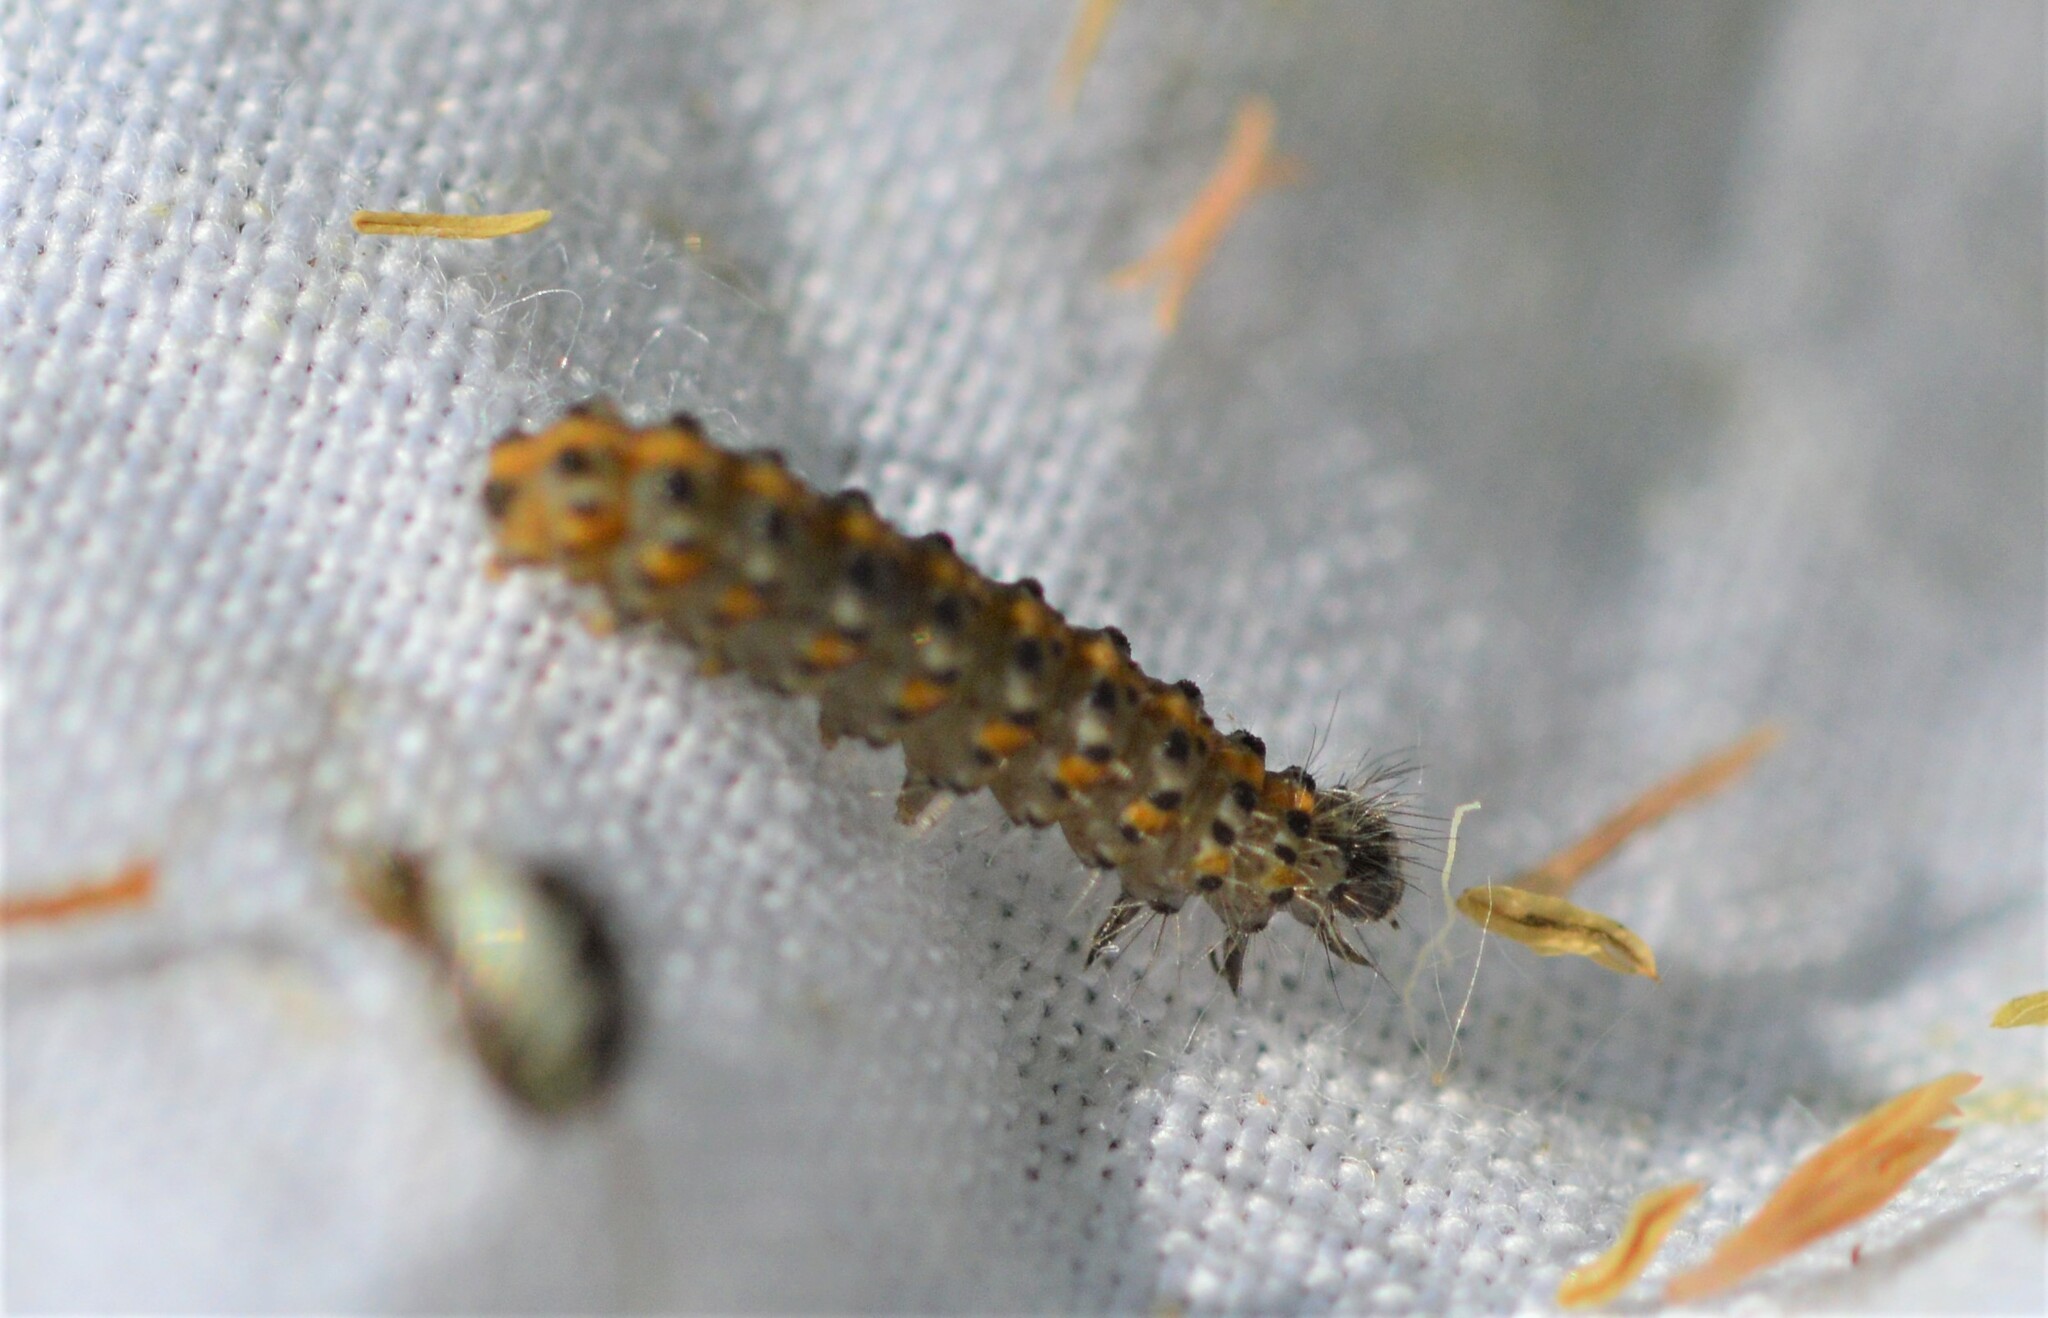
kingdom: Animalia
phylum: Arthropoda
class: Insecta
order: Lepidoptera
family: Erebidae
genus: Phragmatobia
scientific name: Phragmatobia fuliginosa
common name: Ruby tiger
